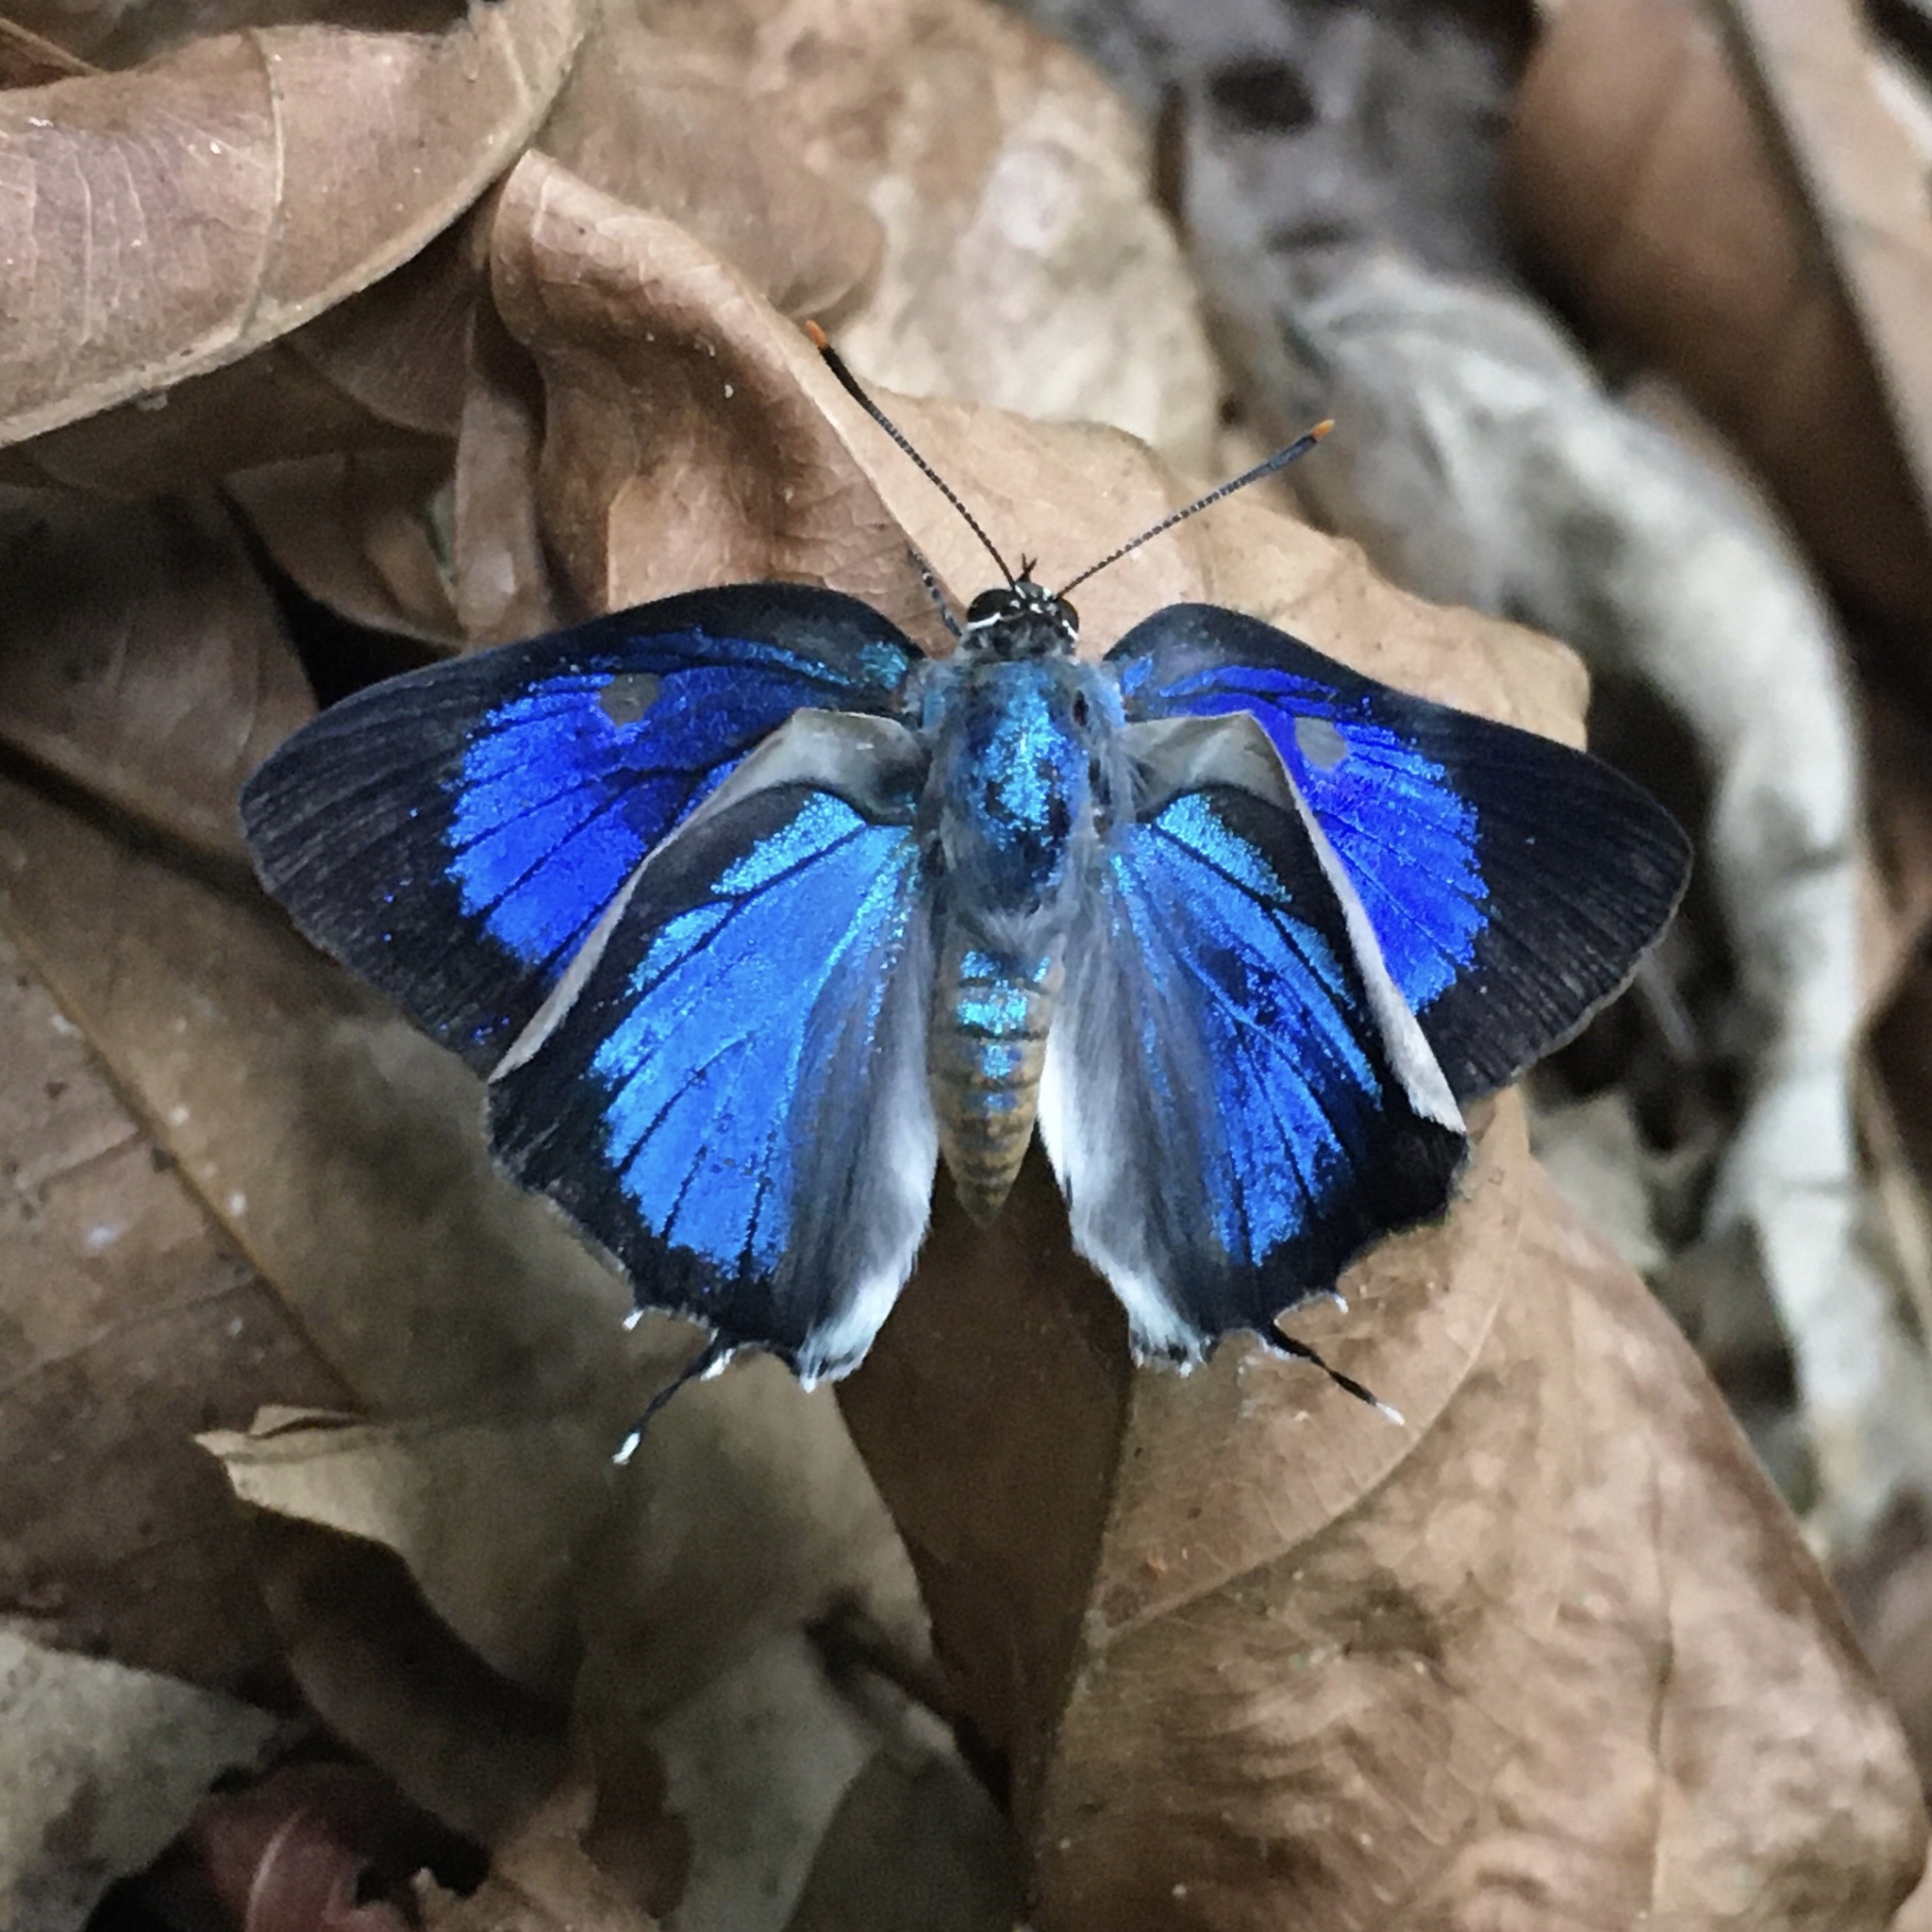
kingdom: Animalia
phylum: Arthropoda
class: Insecta
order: Lepidoptera
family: Lycaenidae
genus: Oenomaus
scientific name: Oenomaus ortygnus
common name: Aquamarine hairstreak
